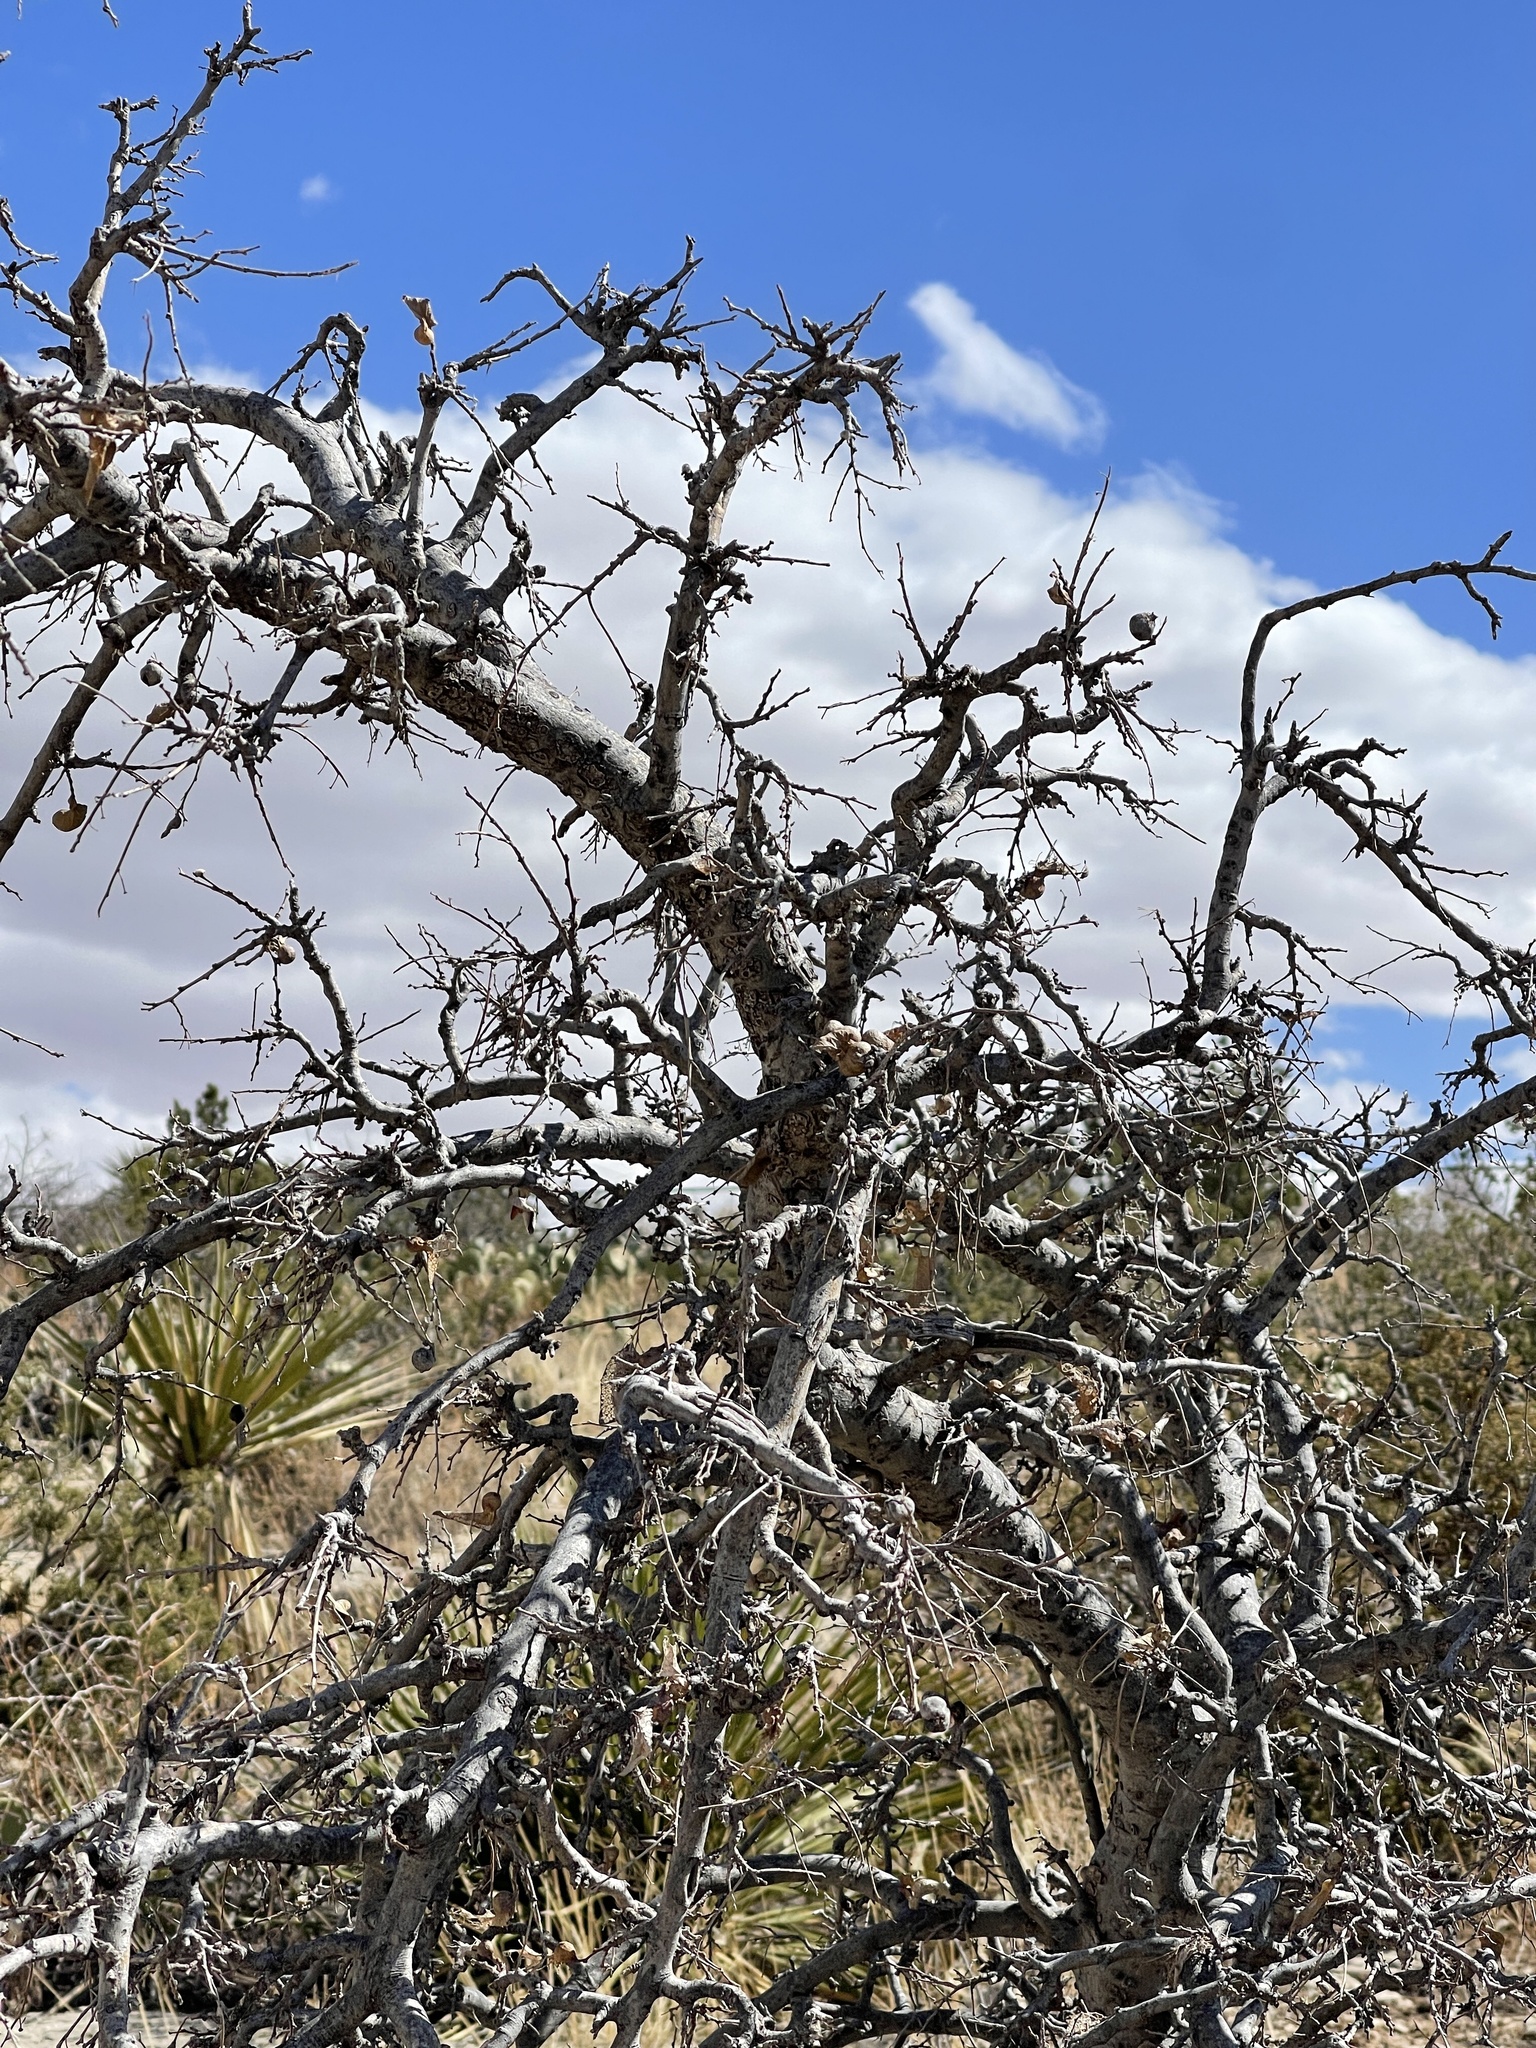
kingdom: Plantae
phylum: Tracheophyta
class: Magnoliopsida
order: Rosales
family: Cannabaceae
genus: Celtis
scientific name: Celtis reticulata
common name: Netleaf hackberry
